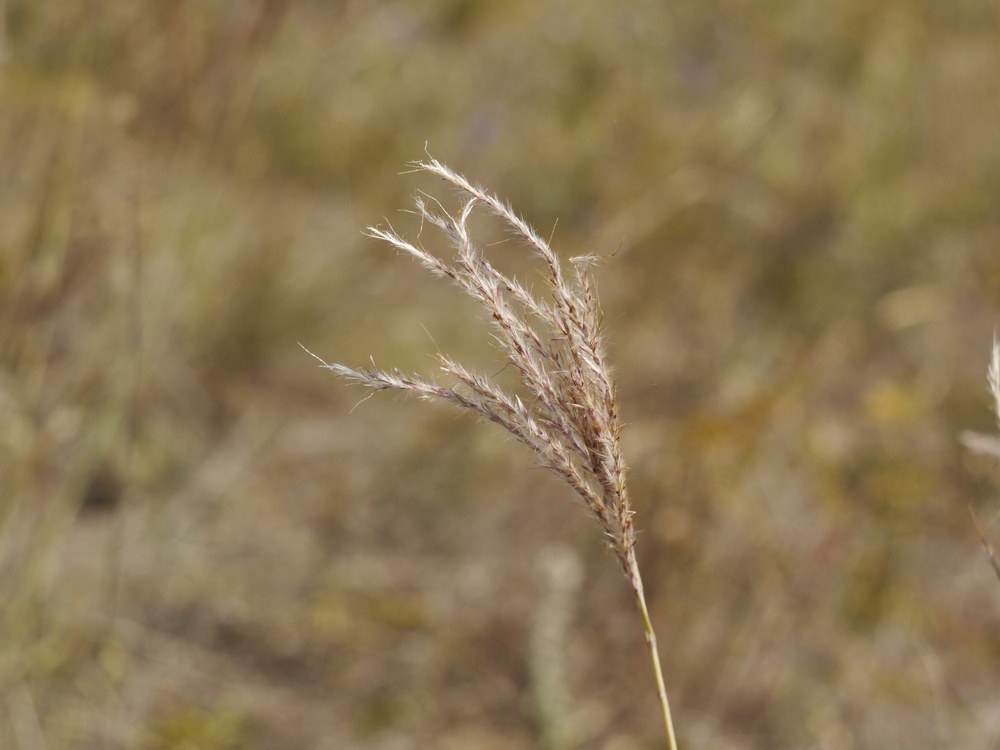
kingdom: Plantae
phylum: Tracheophyta
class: Liliopsida
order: Poales
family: Poaceae
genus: Bothriochloa
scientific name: Bothriochloa ischaemum
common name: Yellow bluestem
